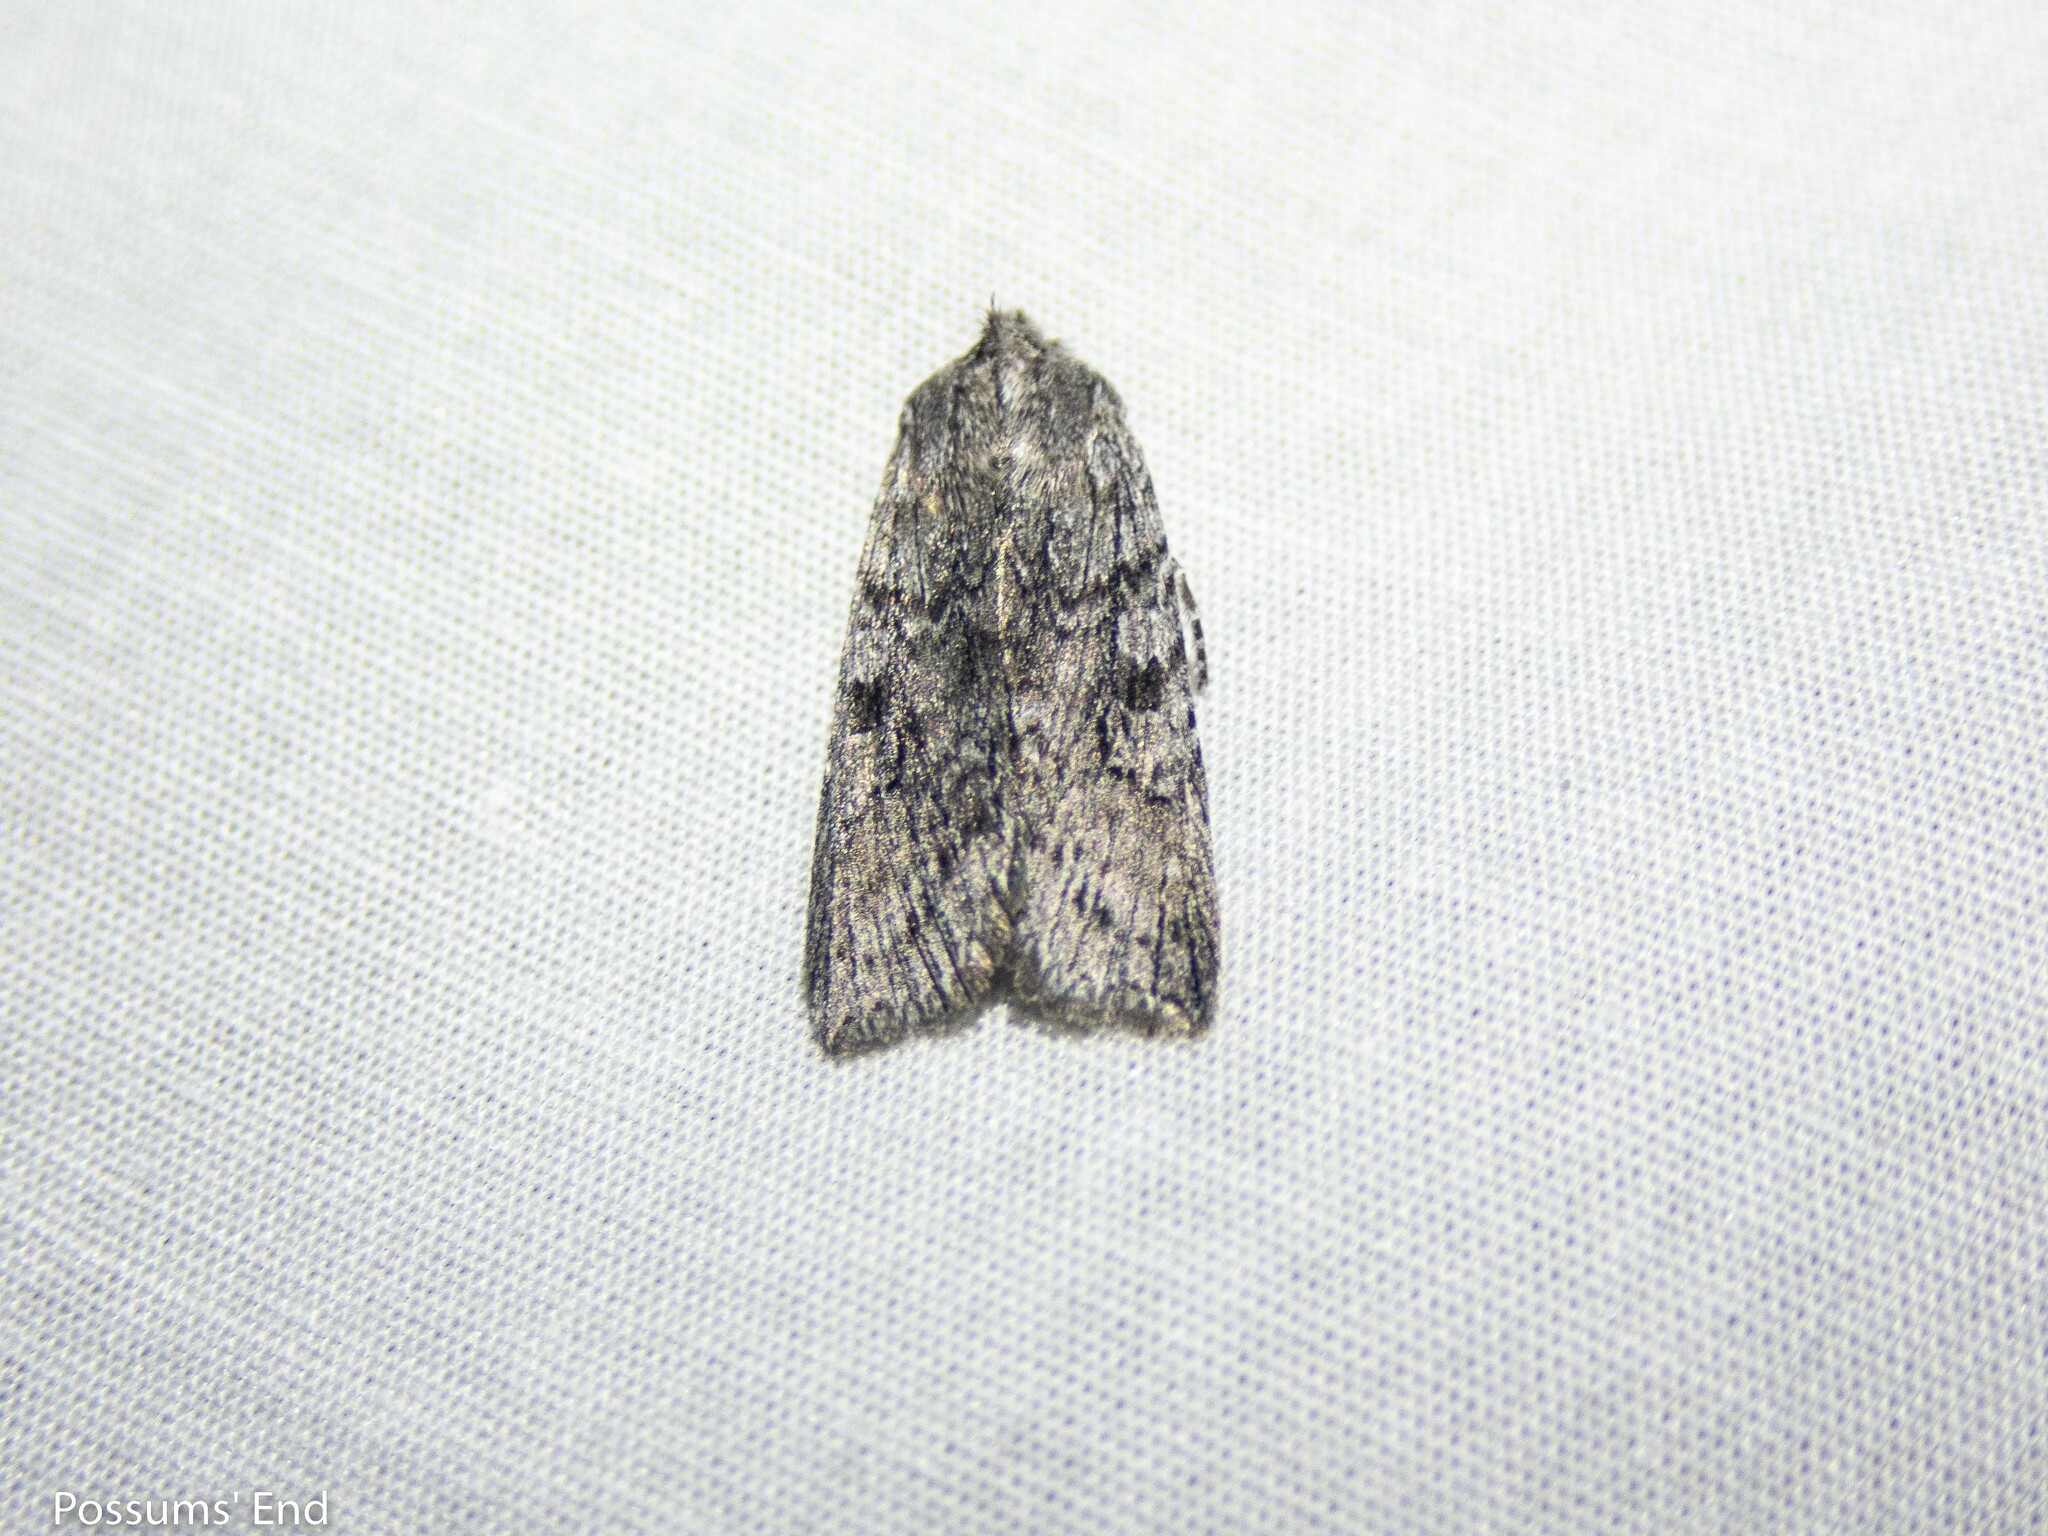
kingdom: Animalia
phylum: Arthropoda
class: Insecta
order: Lepidoptera
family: Noctuidae
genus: Physetica
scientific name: Physetica phricias
